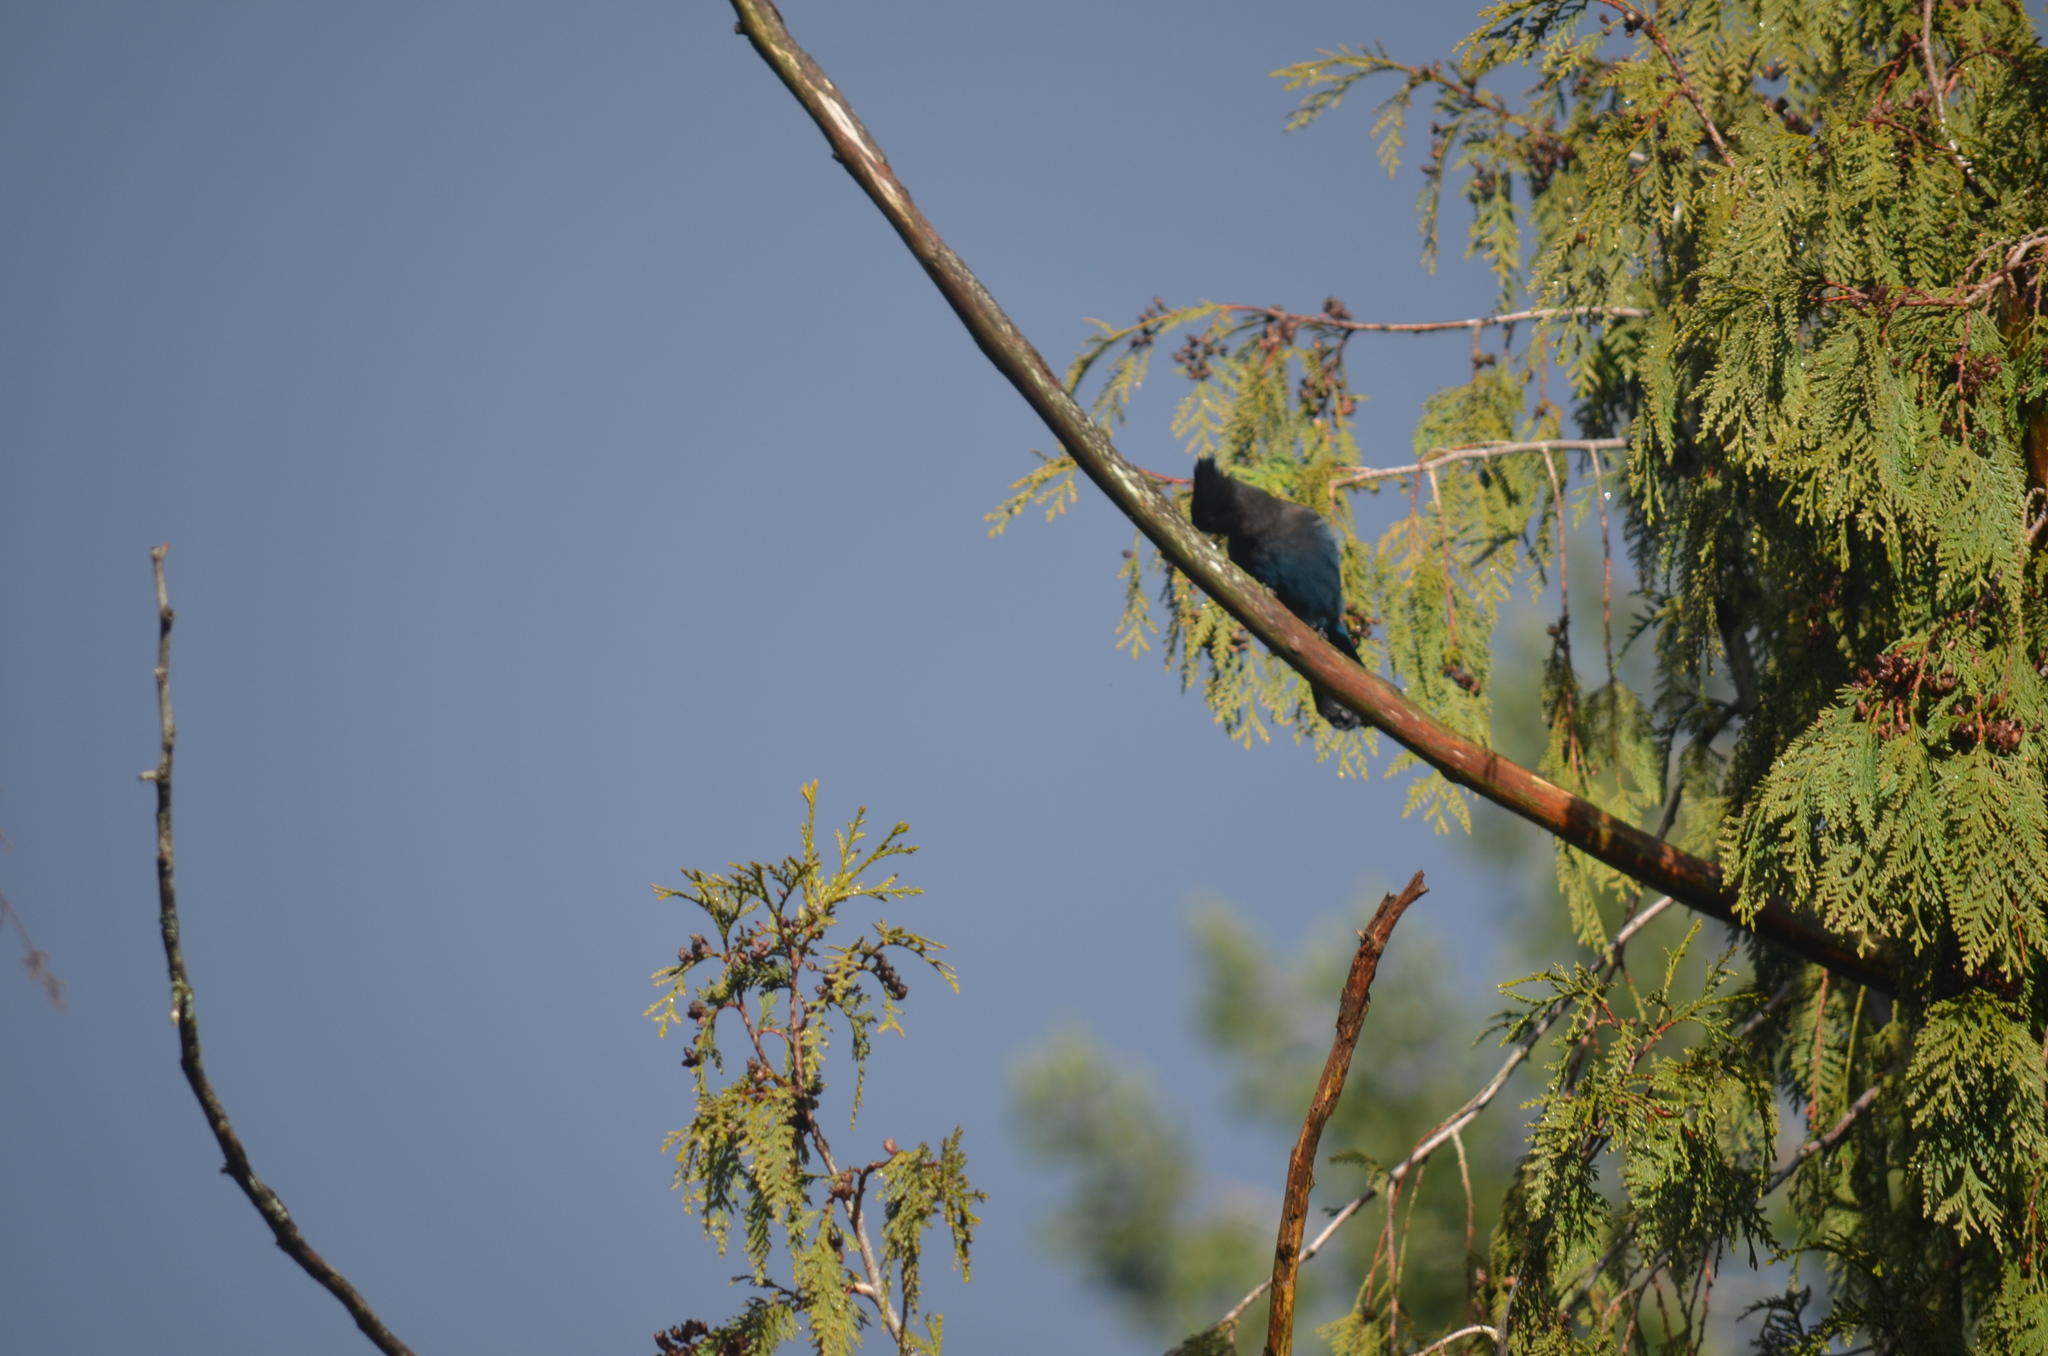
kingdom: Animalia
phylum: Chordata
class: Aves
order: Passeriformes
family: Corvidae
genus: Cyanocitta
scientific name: Cyanocitta stelleri
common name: Steller's jay
